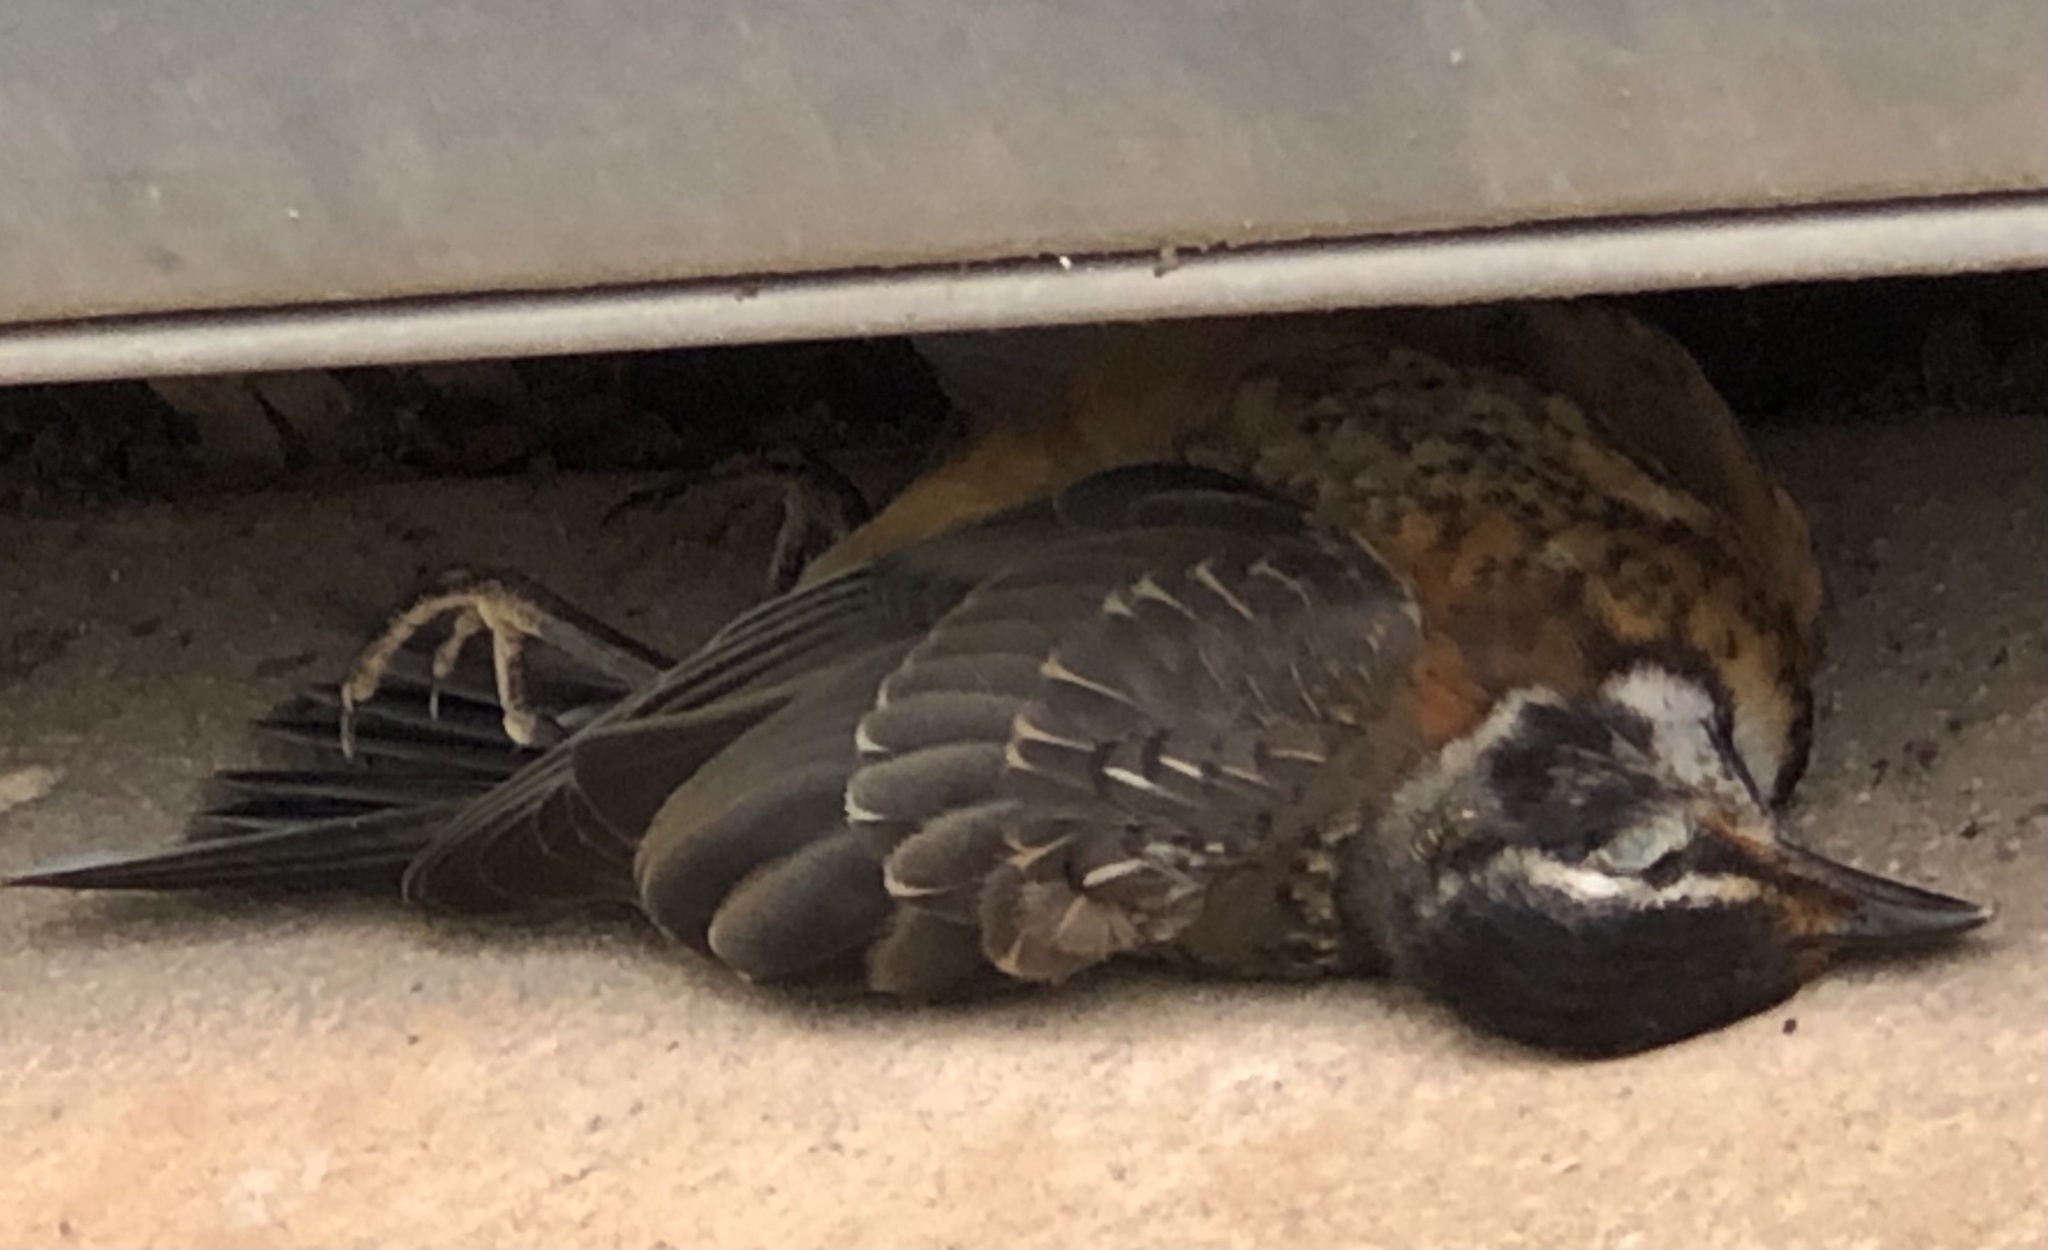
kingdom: Animalia
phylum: Chordata
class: Aves
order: Passeriformes
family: Turdidae
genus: Turdus
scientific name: Turdus migratorius
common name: American robin
